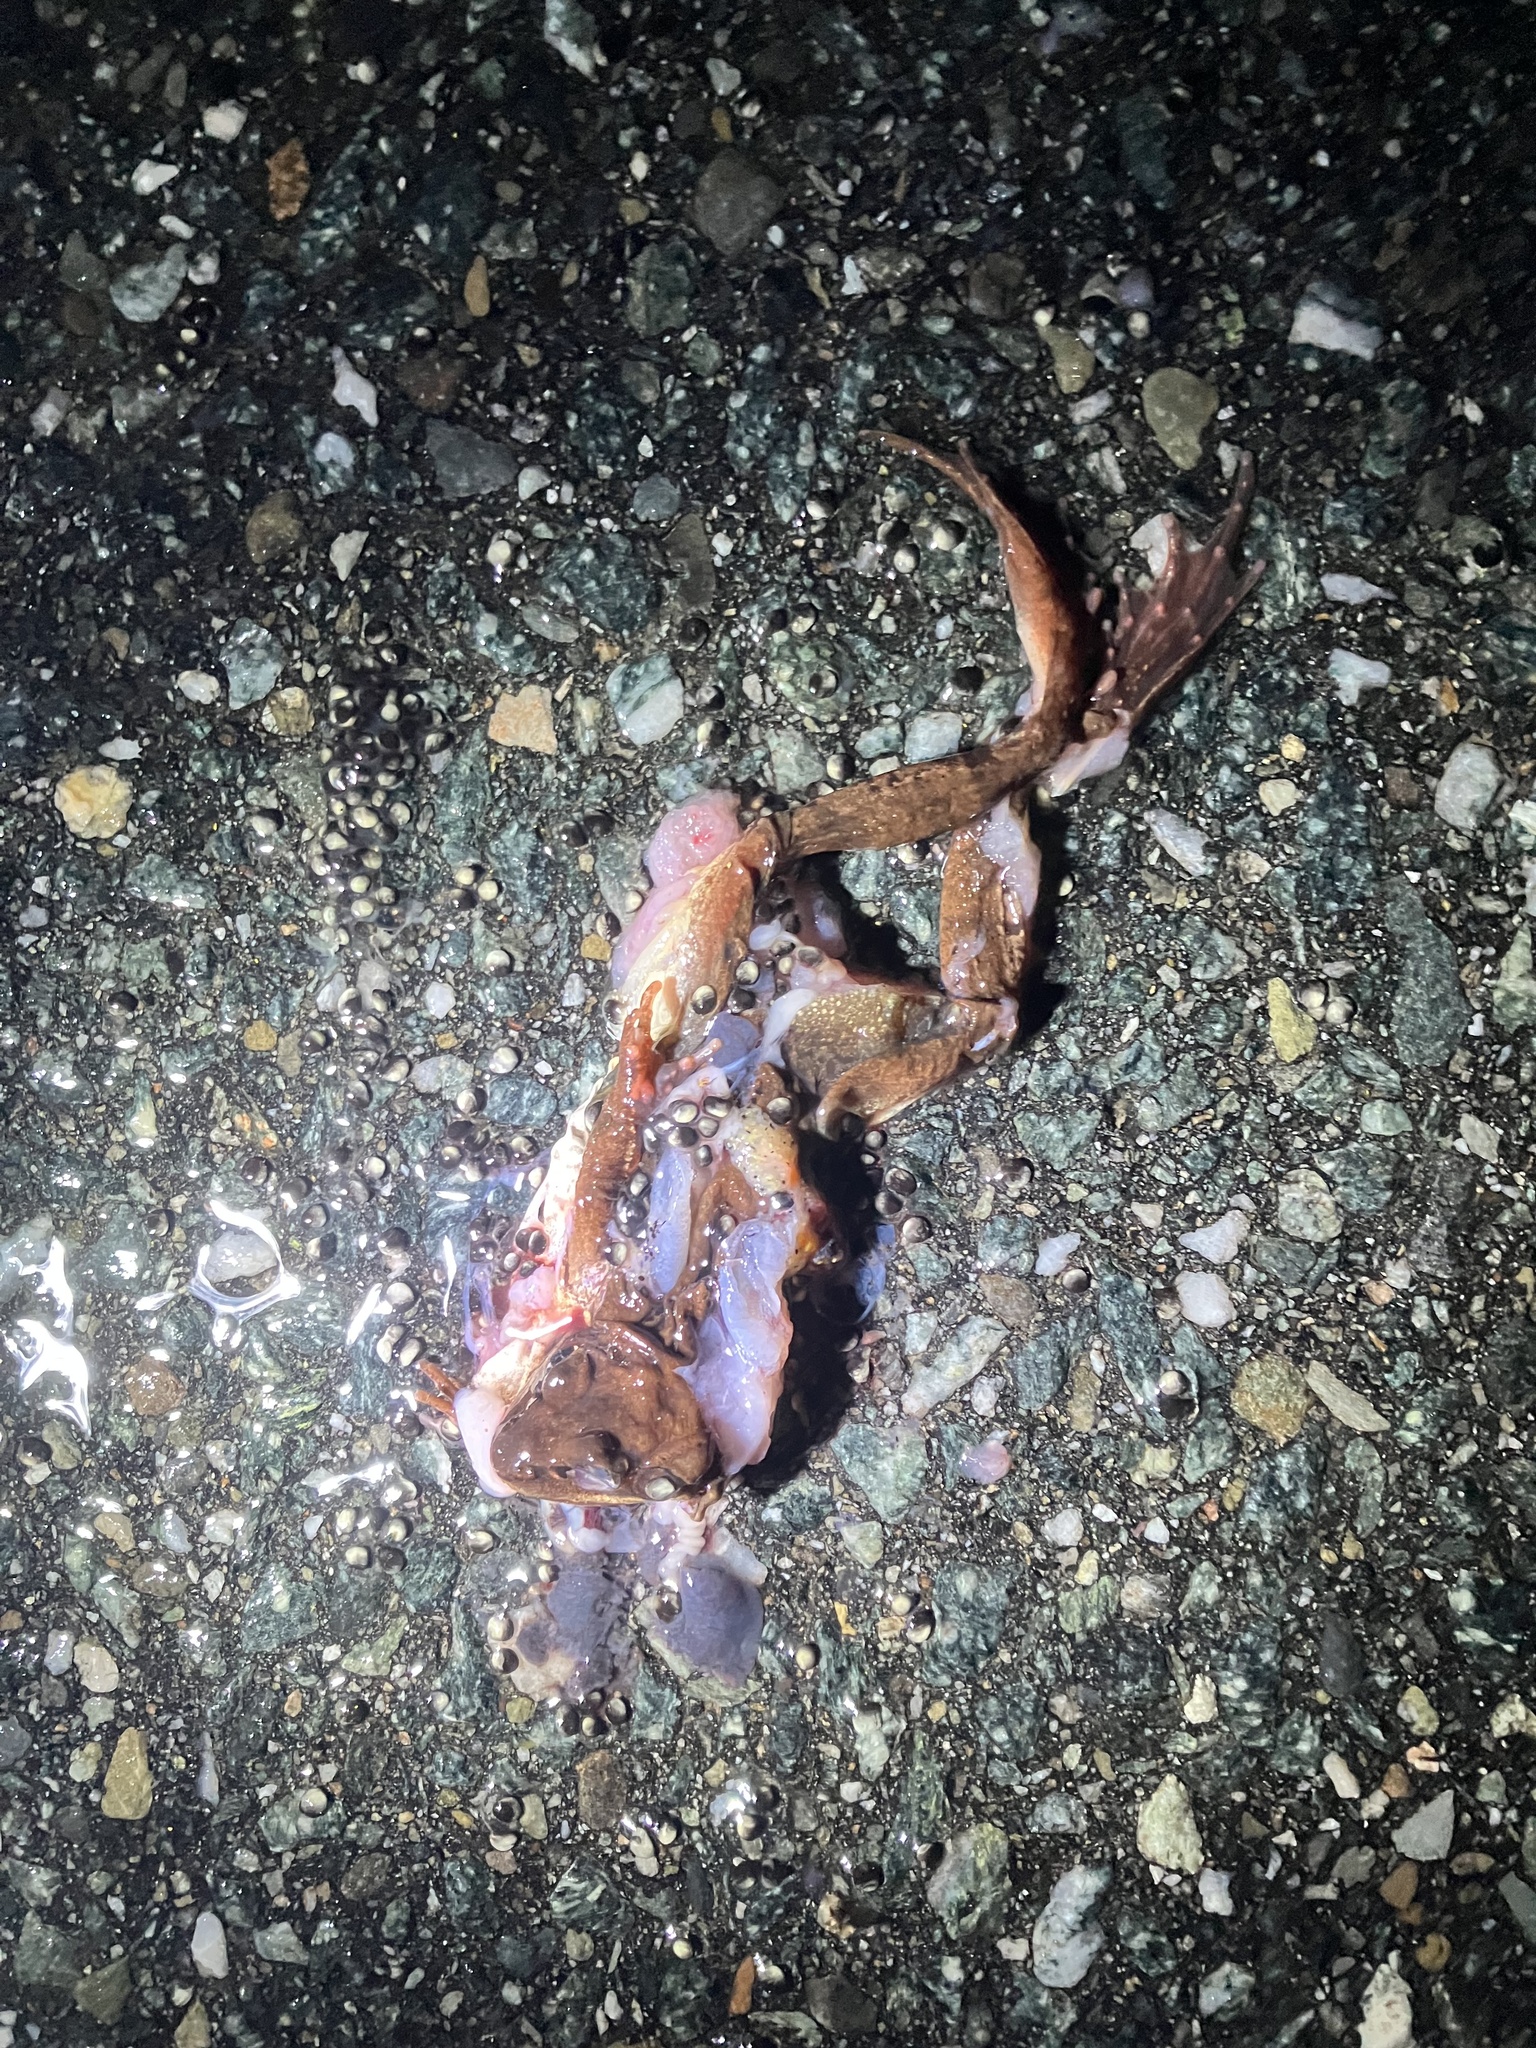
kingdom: Animalia
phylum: Chordata
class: Amphibia
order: Anura
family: Ranidae
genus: Lithobates
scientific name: Lithobates sylvaticus
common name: Wood frog
